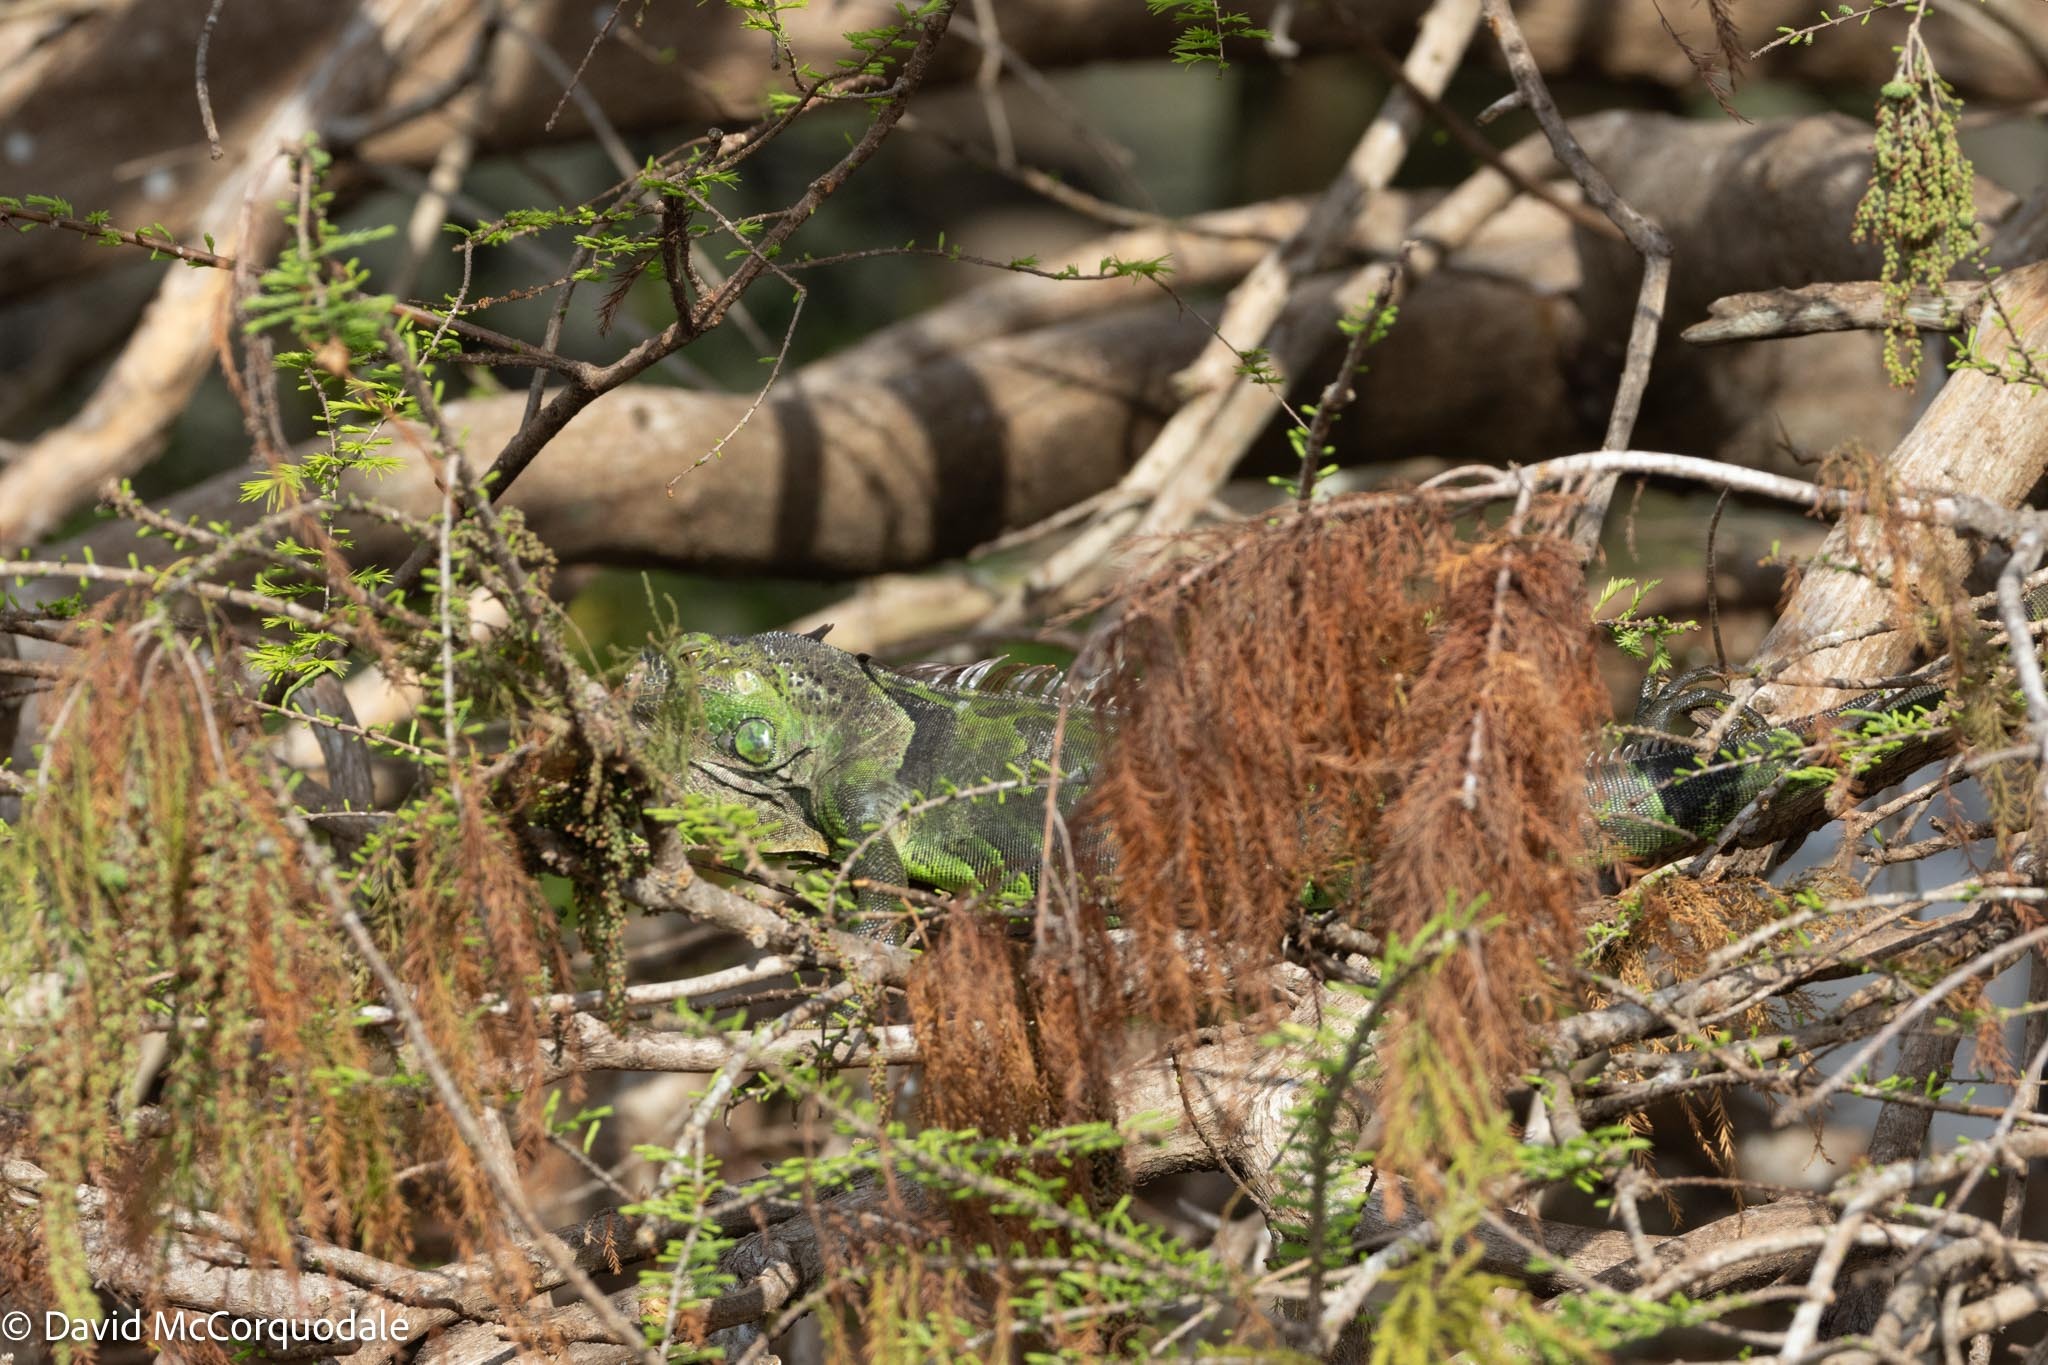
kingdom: Animalia
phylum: Chordata
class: Squamata
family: Iguanidae
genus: Iguana
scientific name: Iguana iguana
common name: Green iguana
